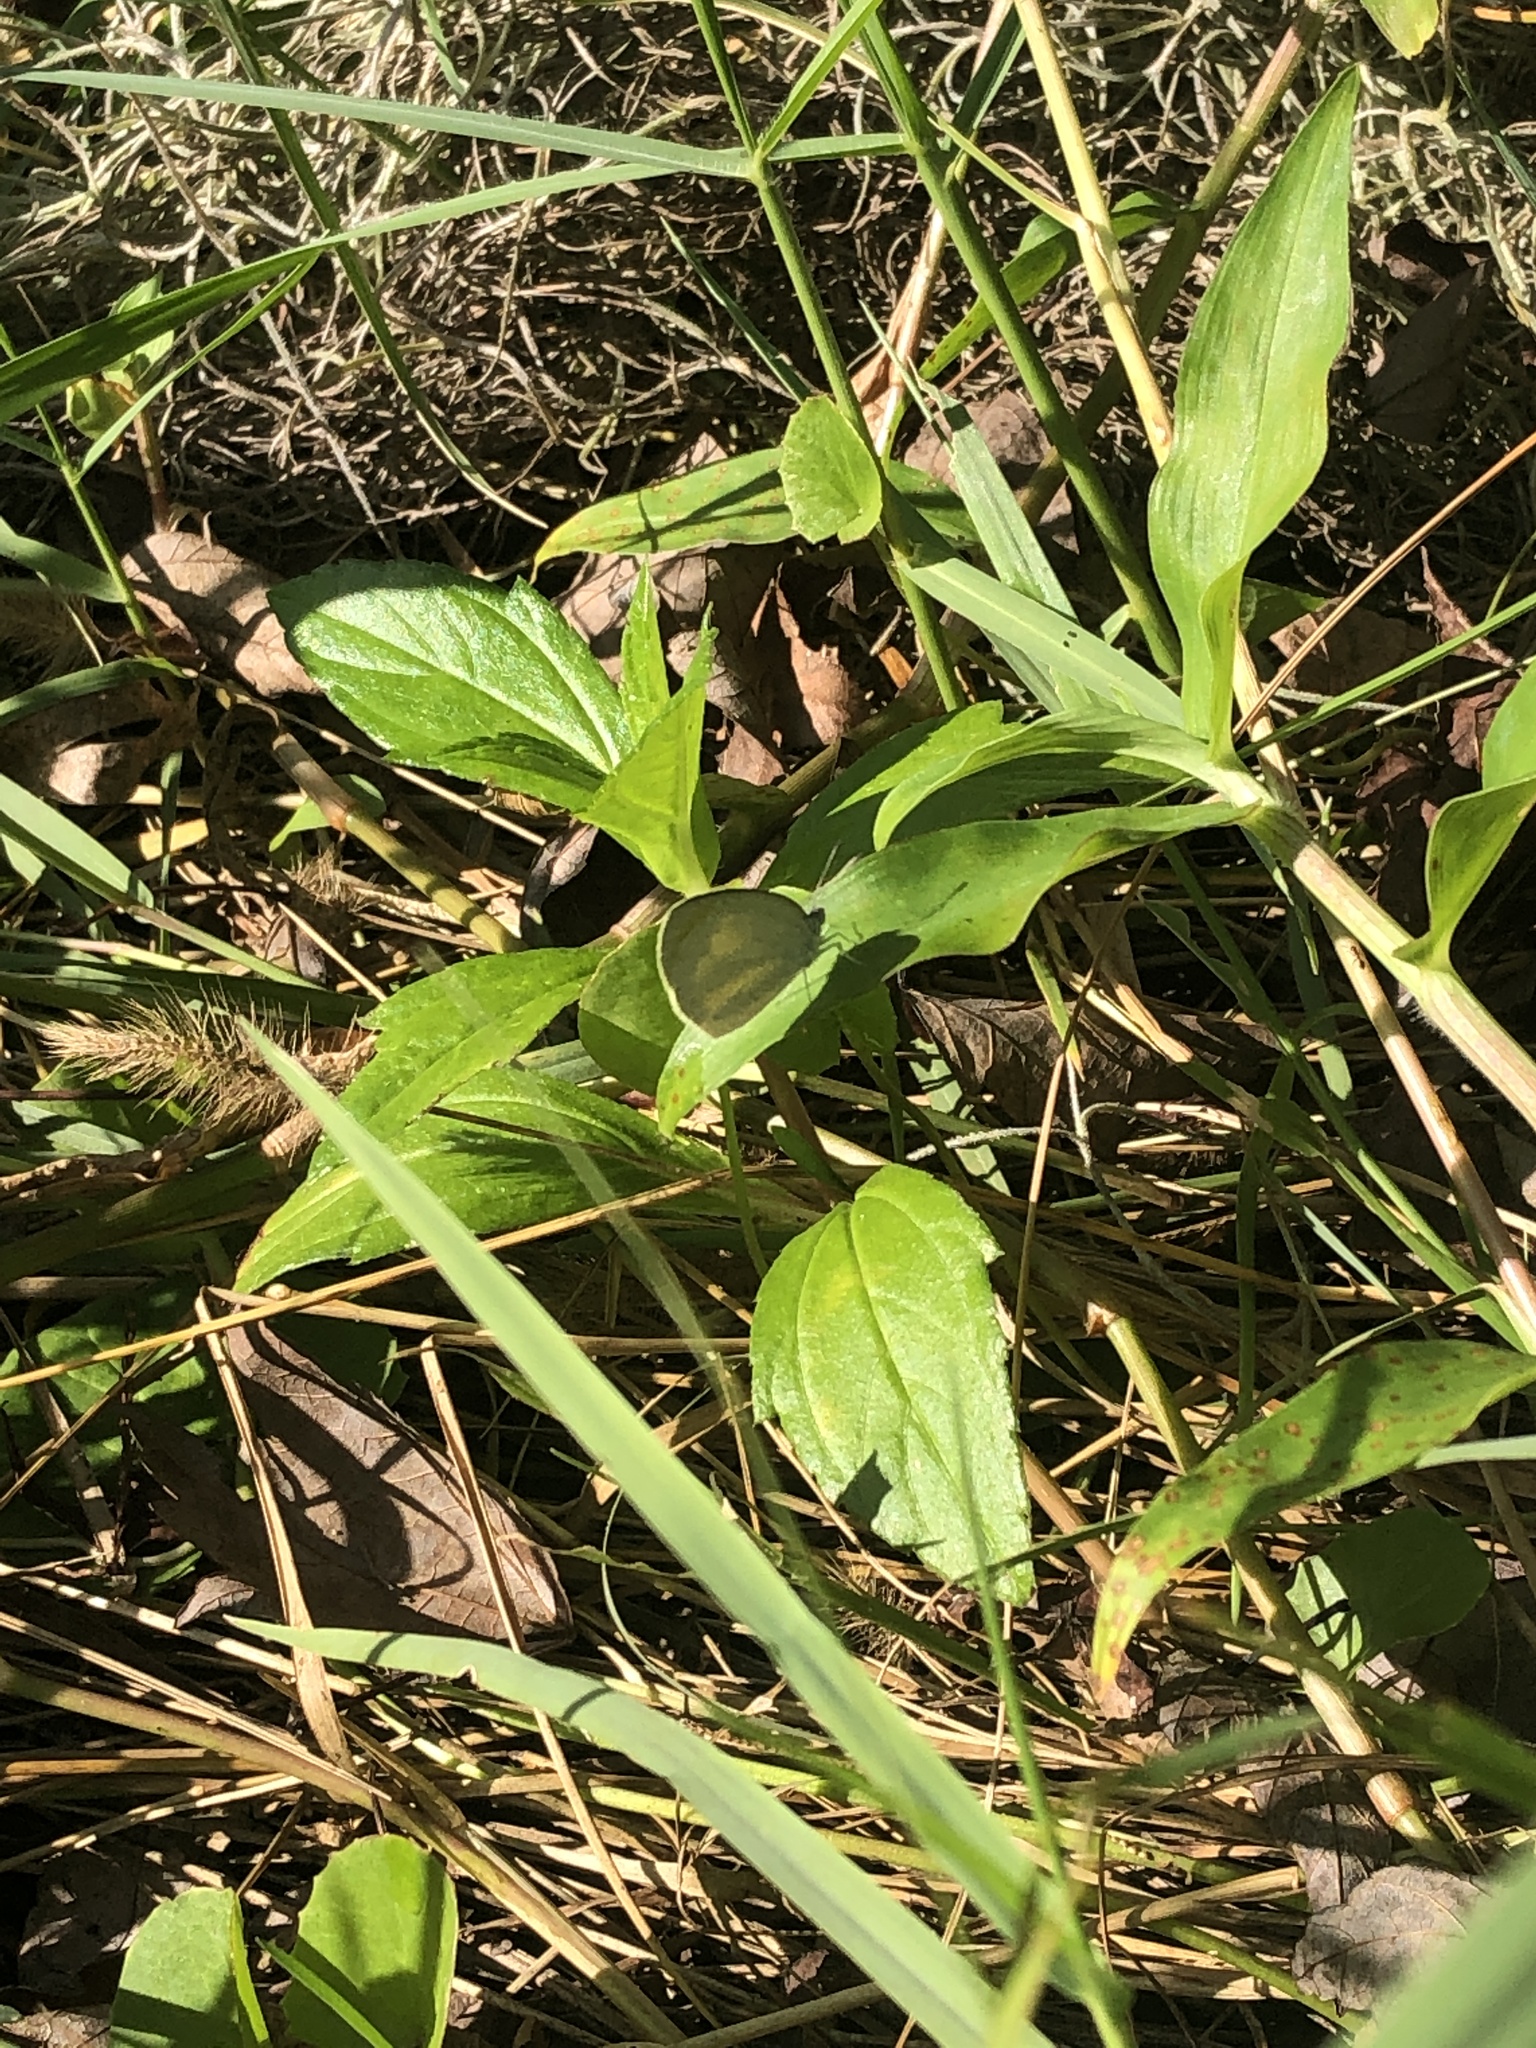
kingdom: Animalia
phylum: Arthropoda
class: Insecta
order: Lepidoptera
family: Pieridae
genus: Eurema
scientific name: Eurema daira
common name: Barred sulphur
